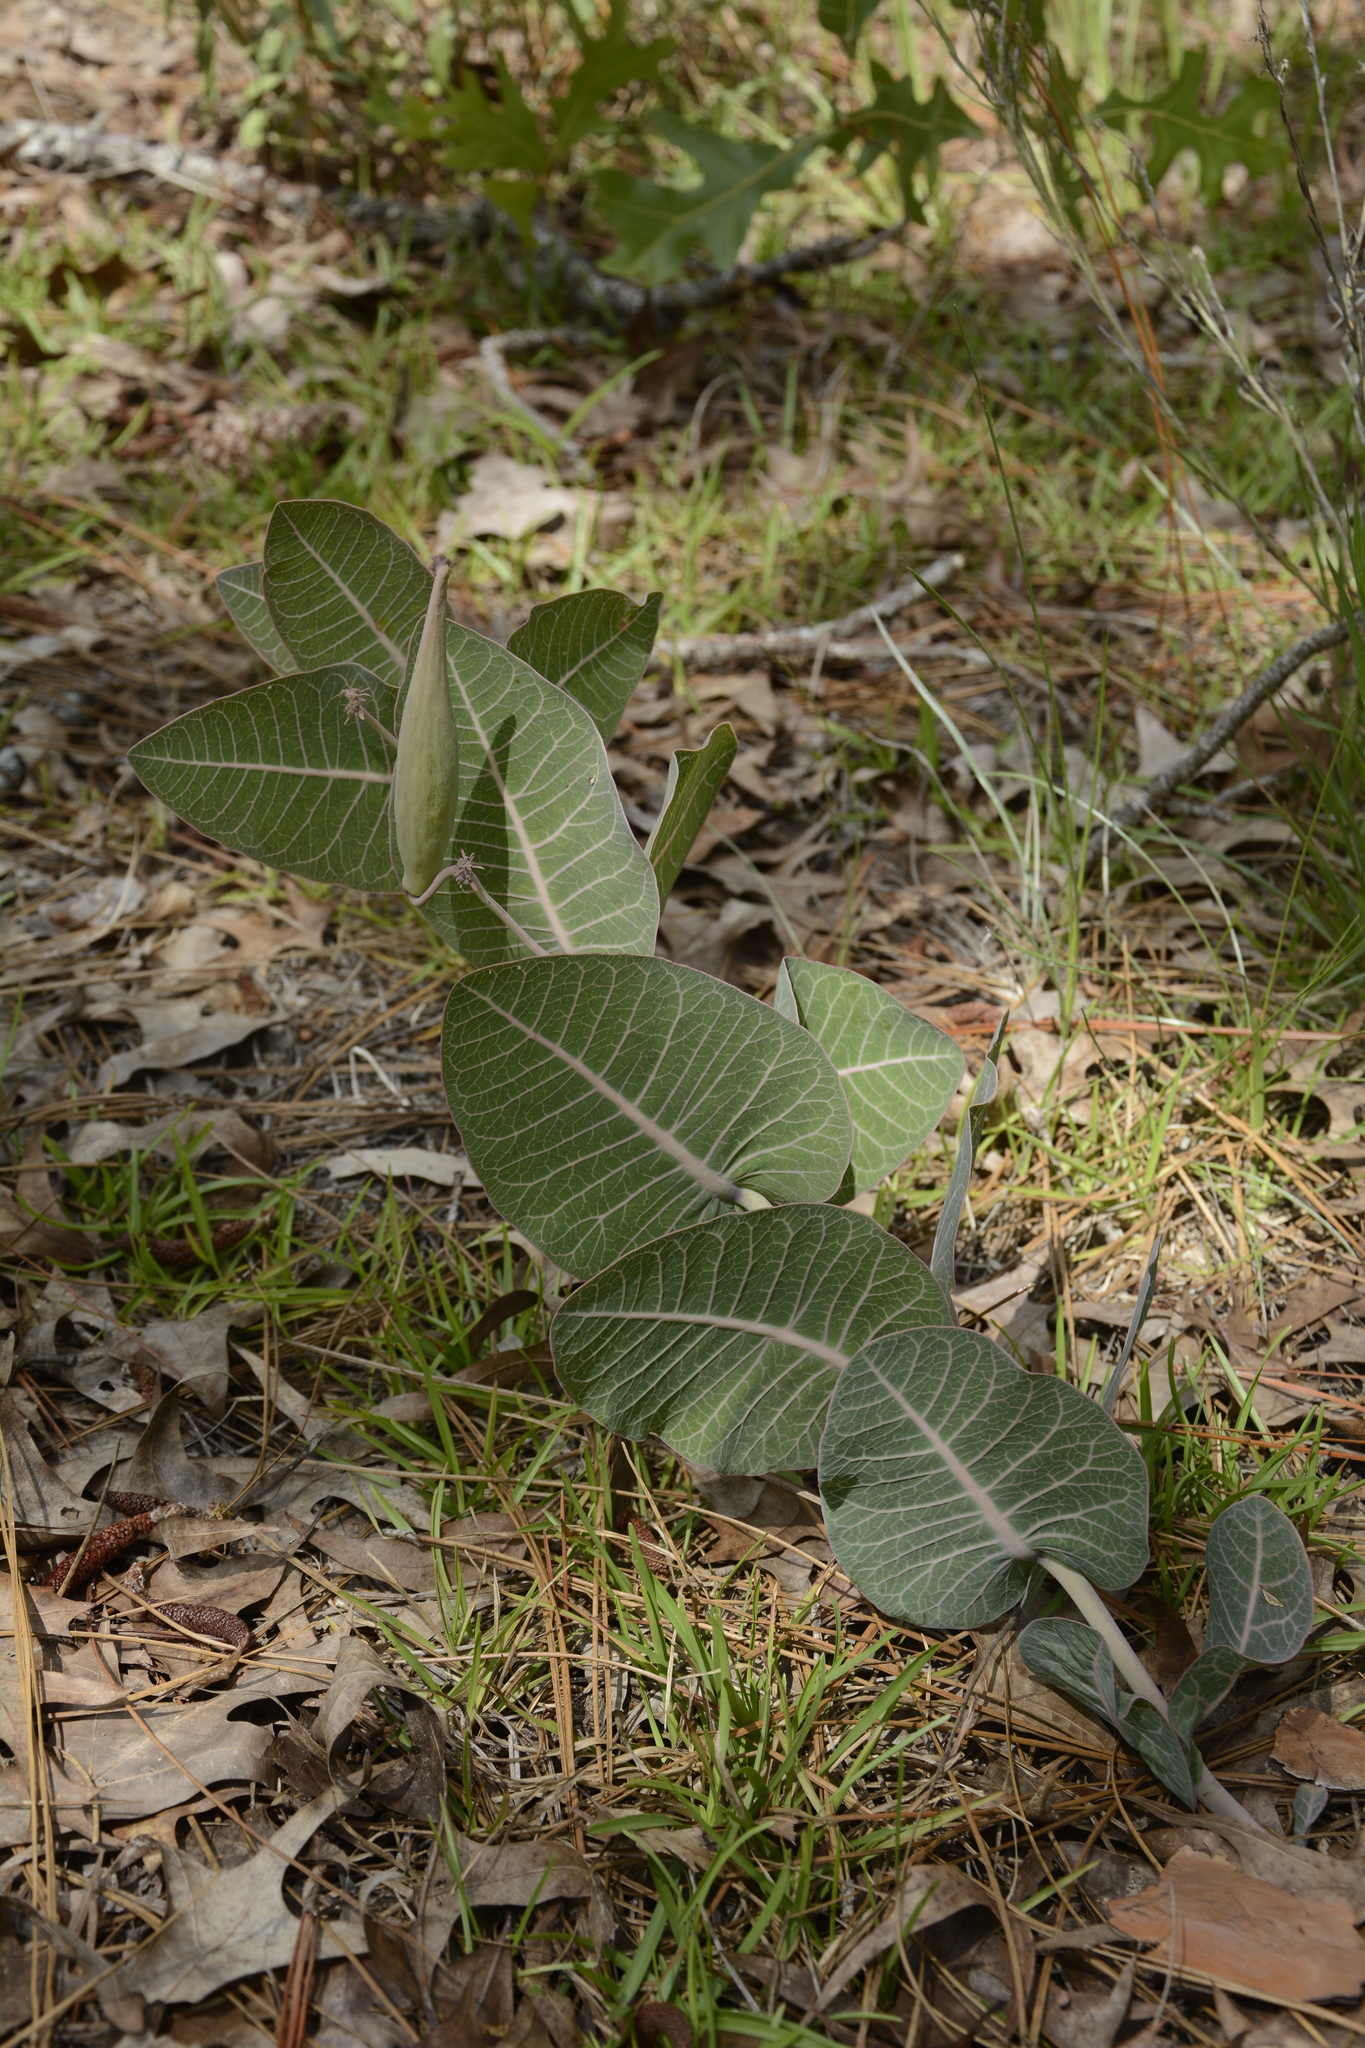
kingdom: Plantae
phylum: Tracheophyta
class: Magnoliopsida
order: Gentianales
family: Apocynaceae
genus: Asclepias
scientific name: Asclepias humistrata
